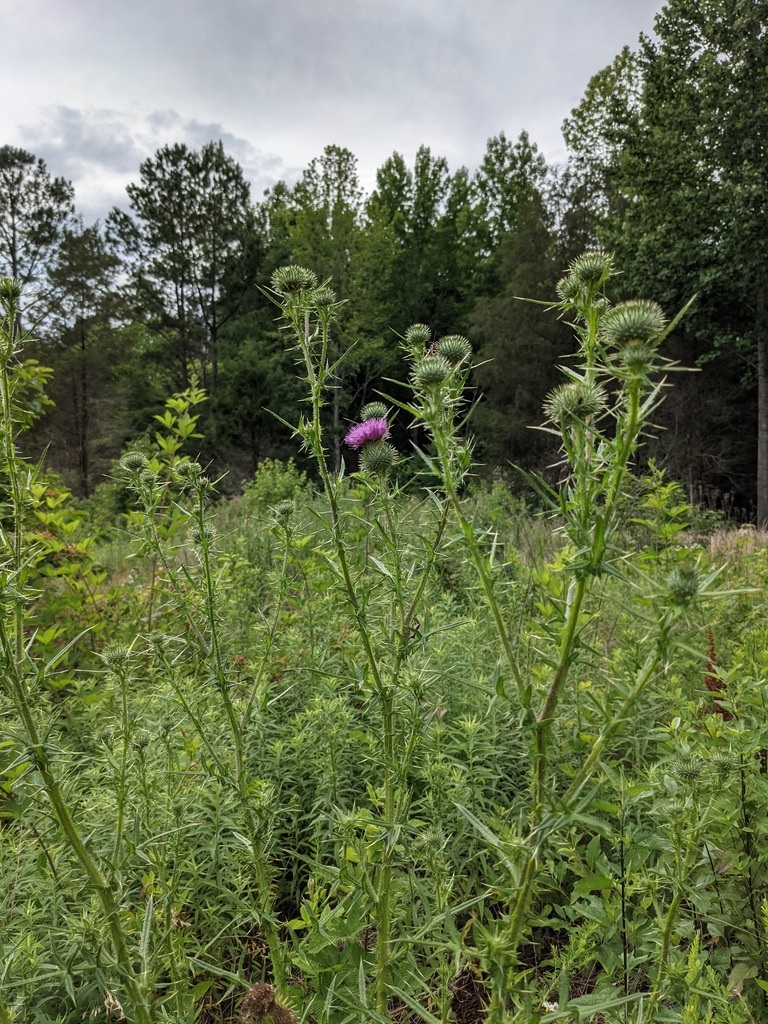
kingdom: Plantae
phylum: Tracheophyta
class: Magnoliopsida
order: Asterales
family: Asteraceae
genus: Cirsium
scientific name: Cirsium vulgare
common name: Bull thistle
